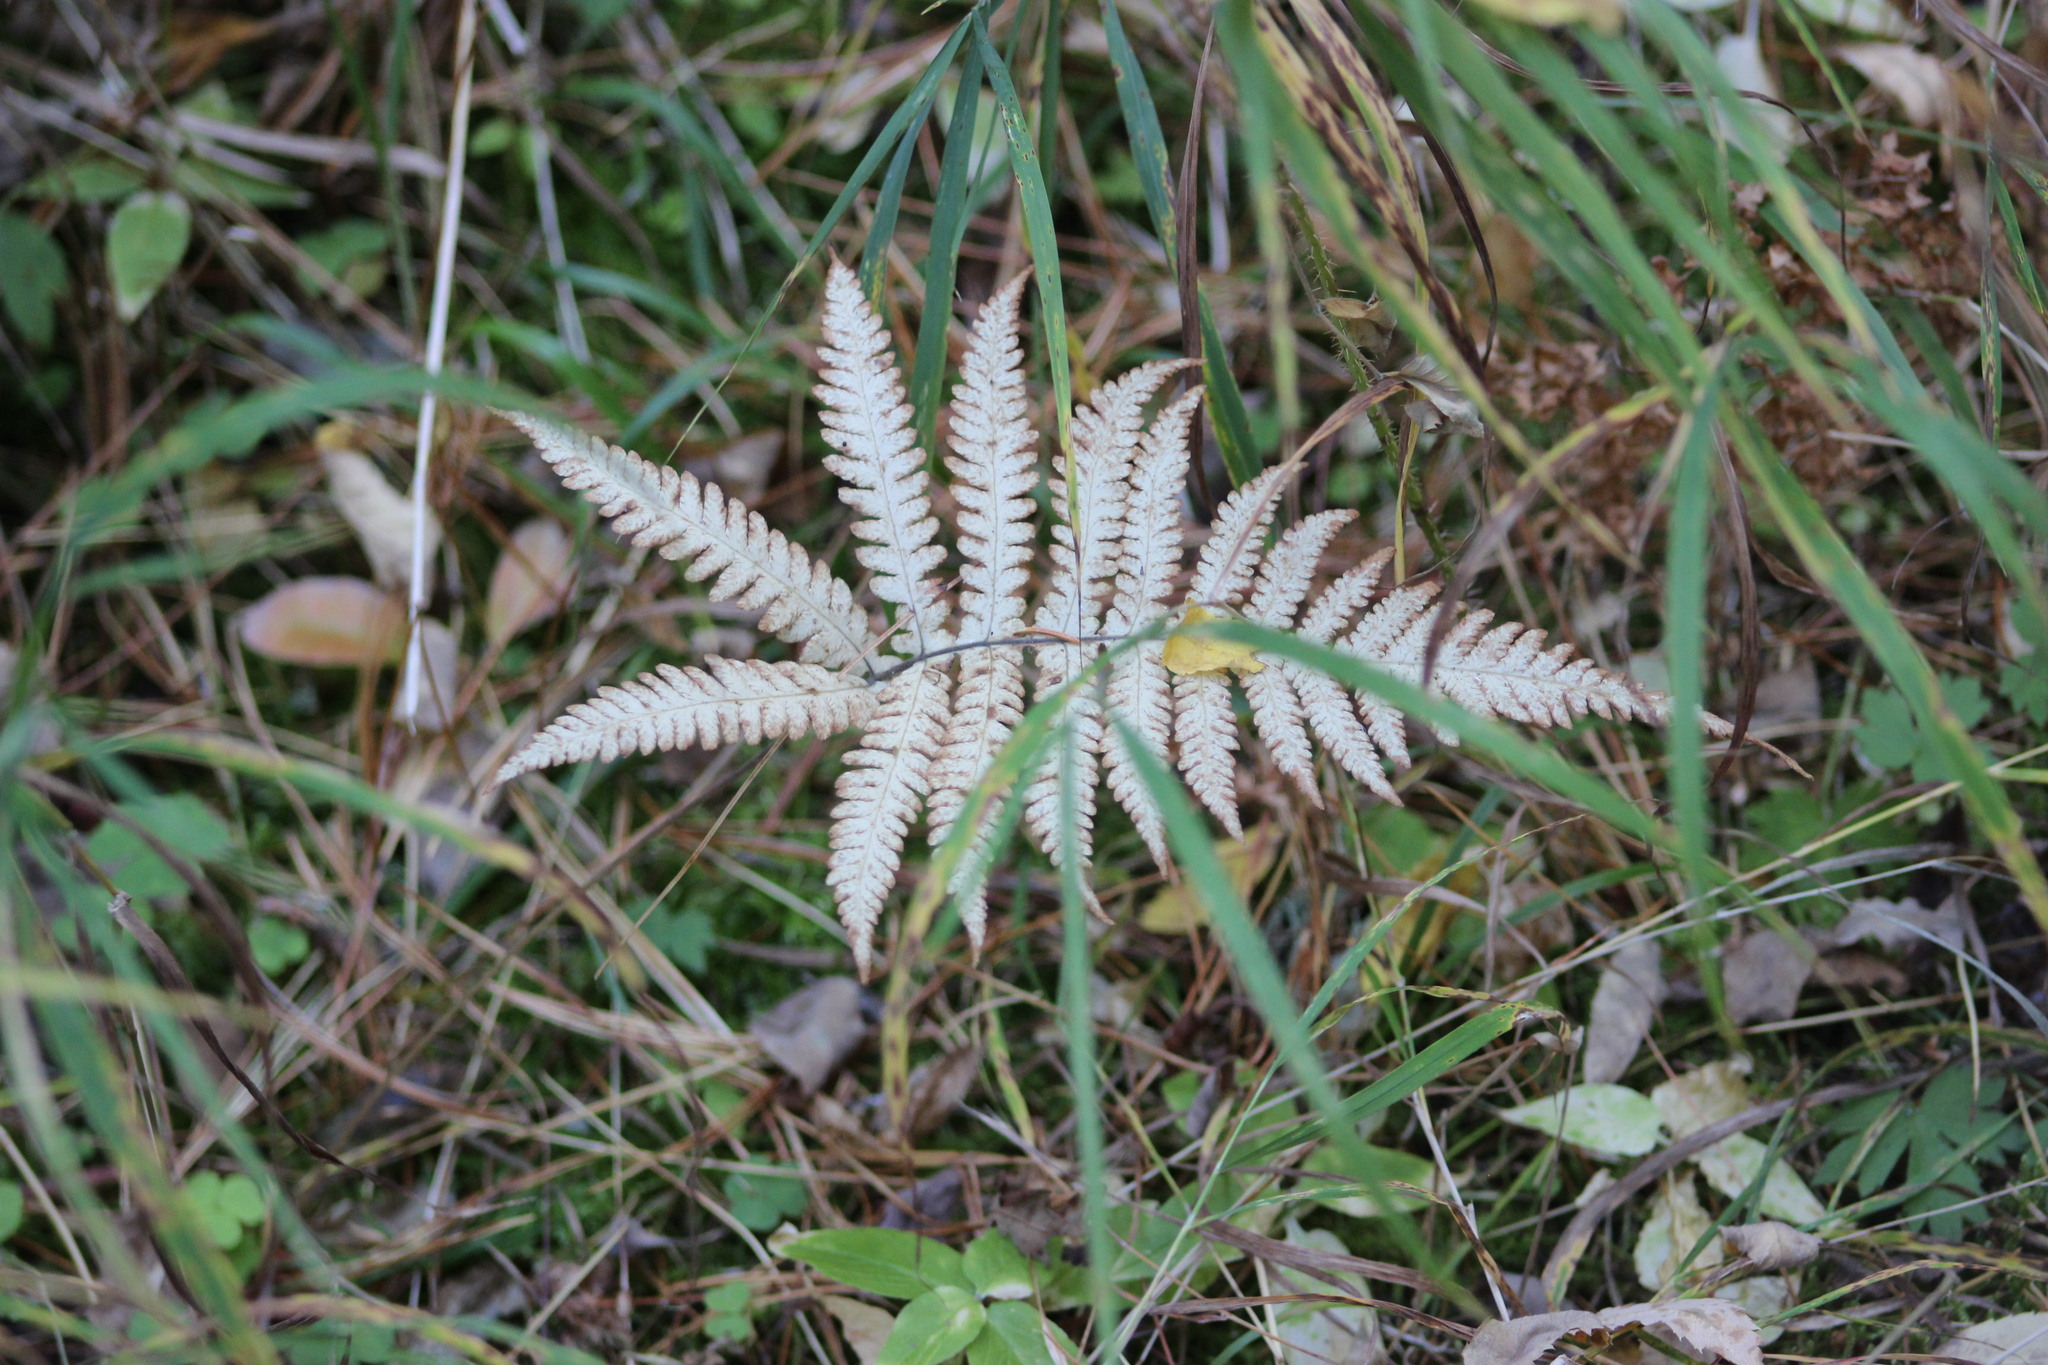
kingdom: Plantae
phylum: Tracheophyta
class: Polypodiopsida
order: Polypodiales
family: Thelypteridaceae
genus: Phegopteris
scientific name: Phegopteris connectilis
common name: Beech fern
